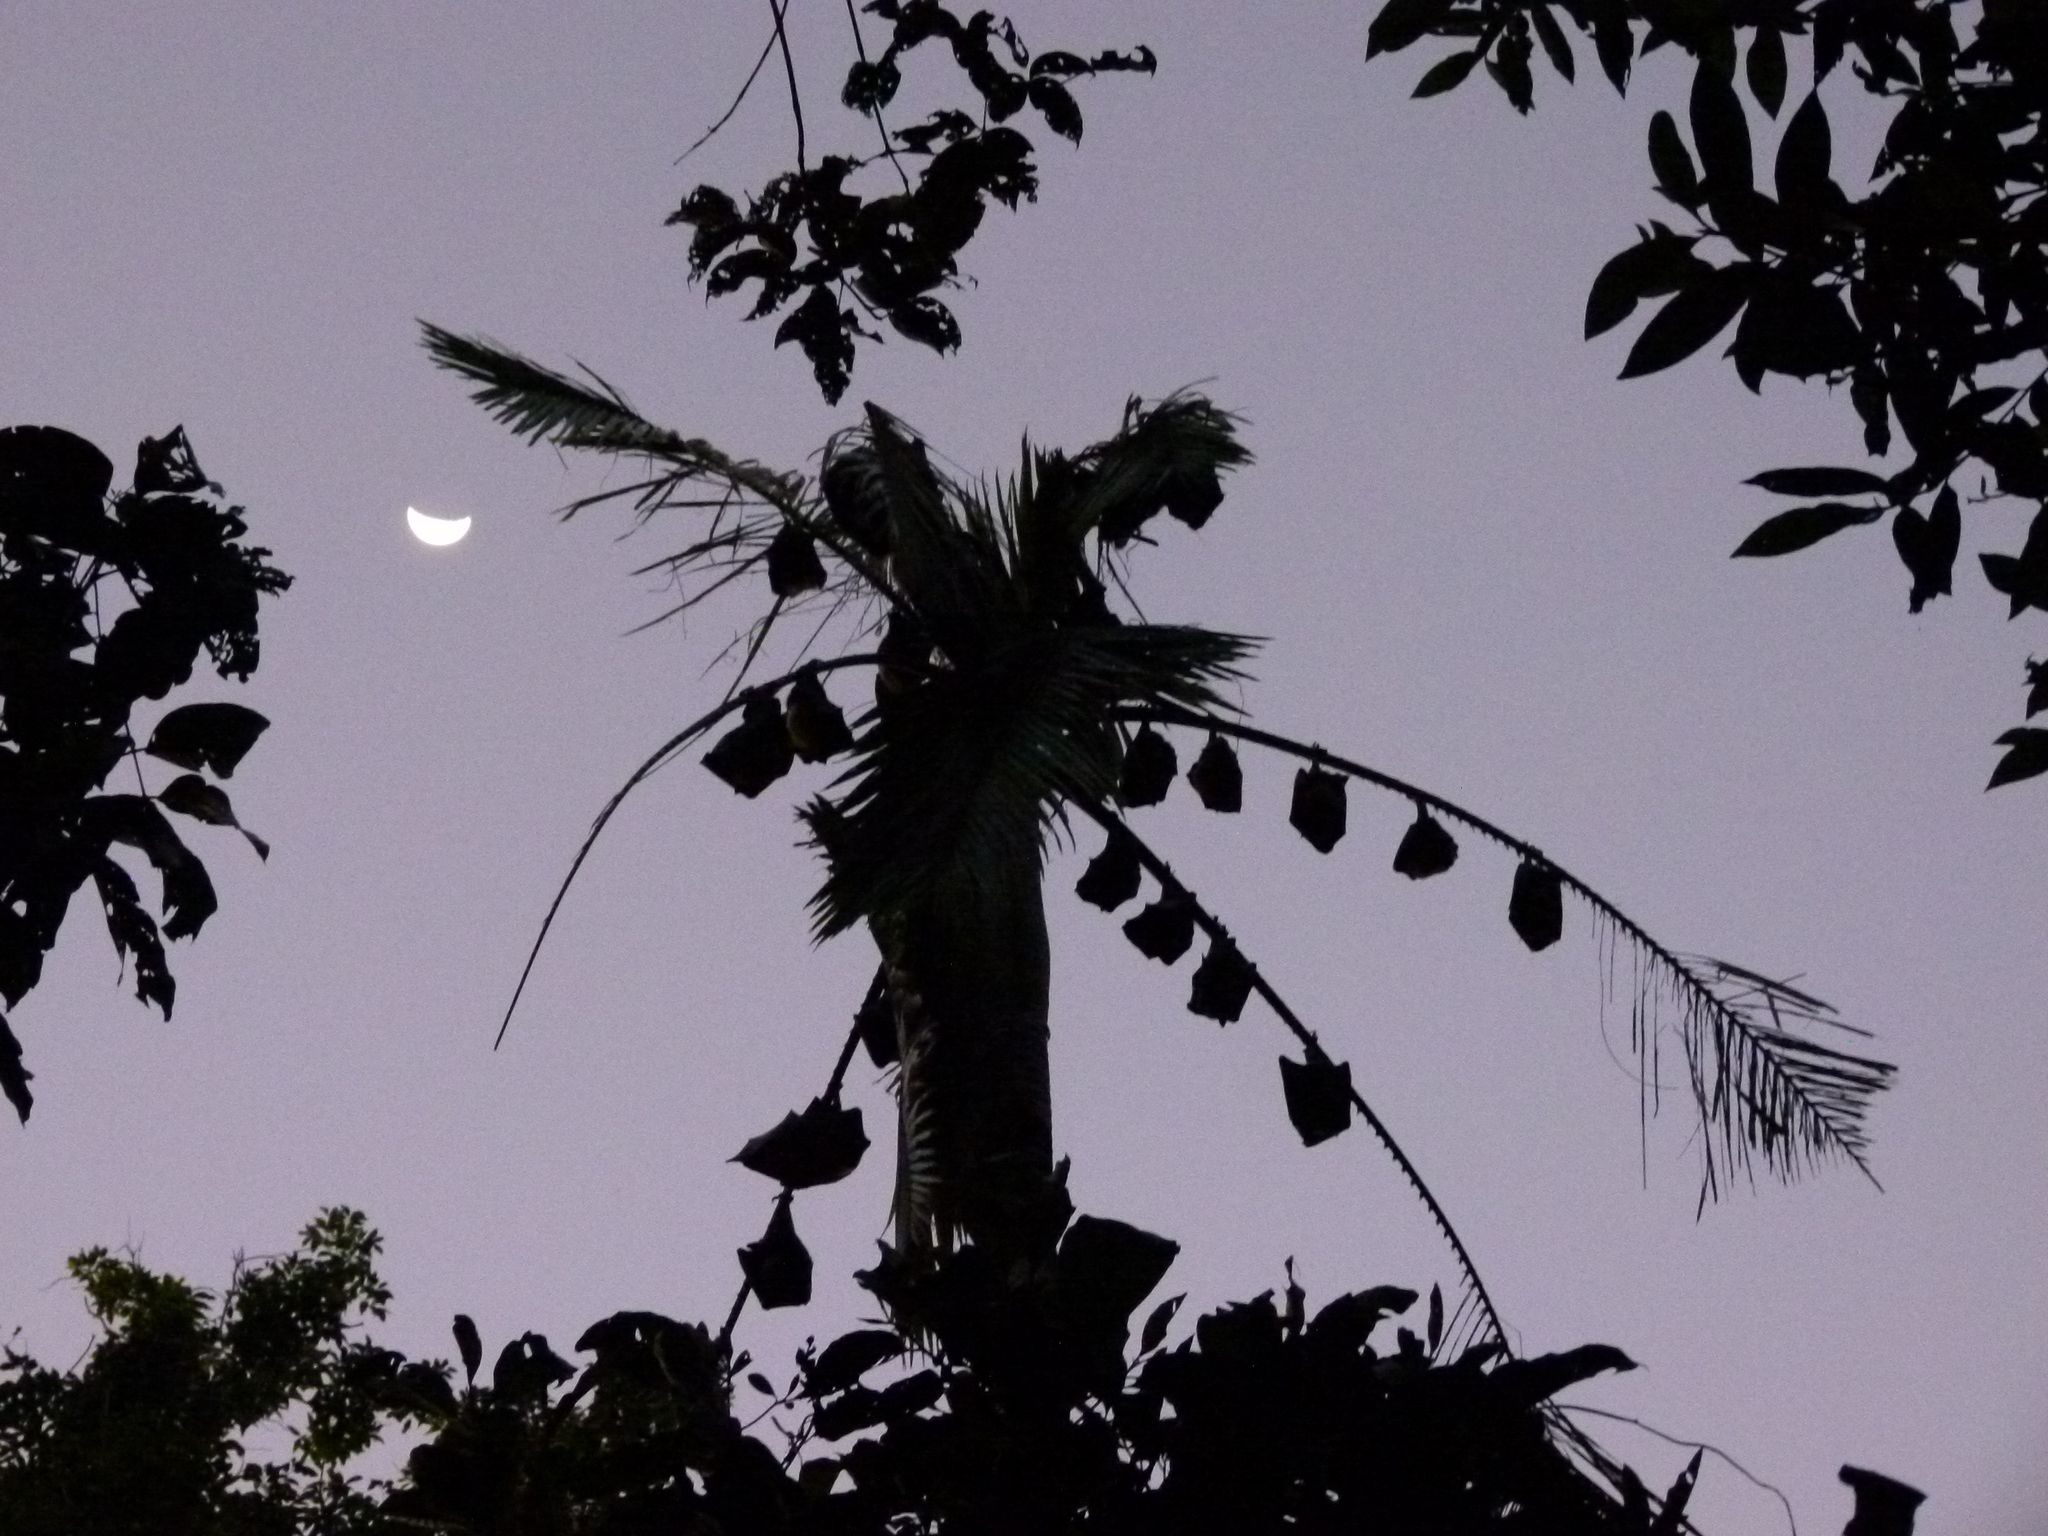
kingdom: Animalia
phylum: Chordata
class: Mammalia
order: Chiroptera
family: Pteropodidae
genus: Pteropus
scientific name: Pteropus conspicillatus
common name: Spectacled flying fox
